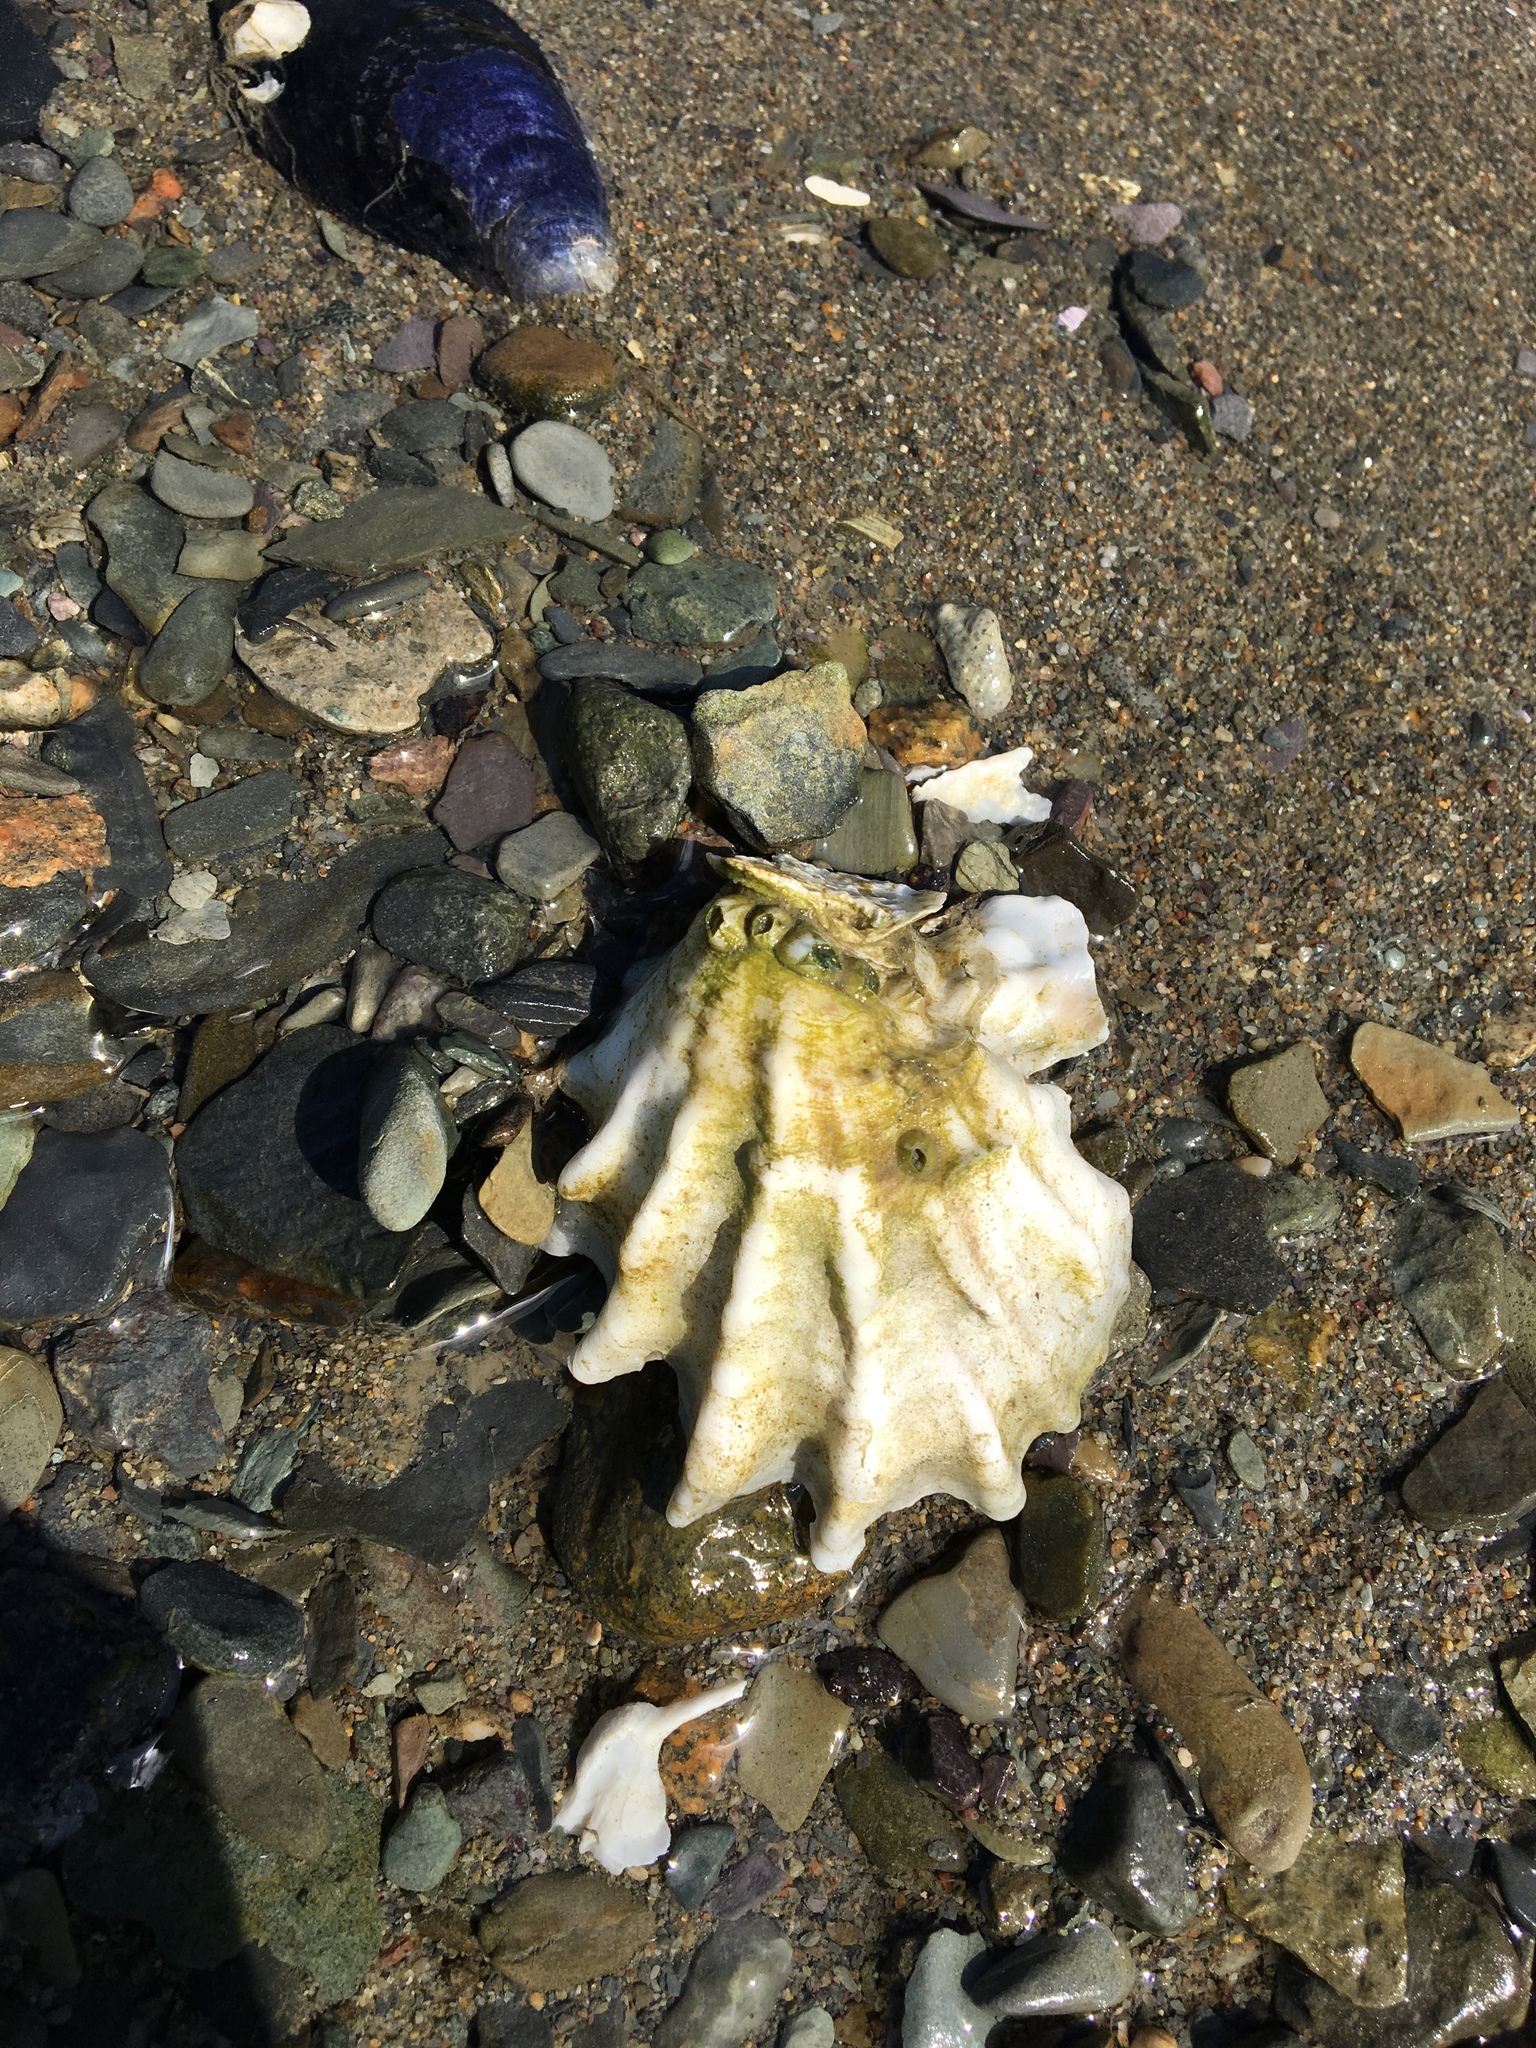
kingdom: Animalia
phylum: Mollusca
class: Bivalvia
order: Ostreida
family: Ostreidae
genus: Crassostrea
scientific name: Crassostrea virginica
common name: American oyster
